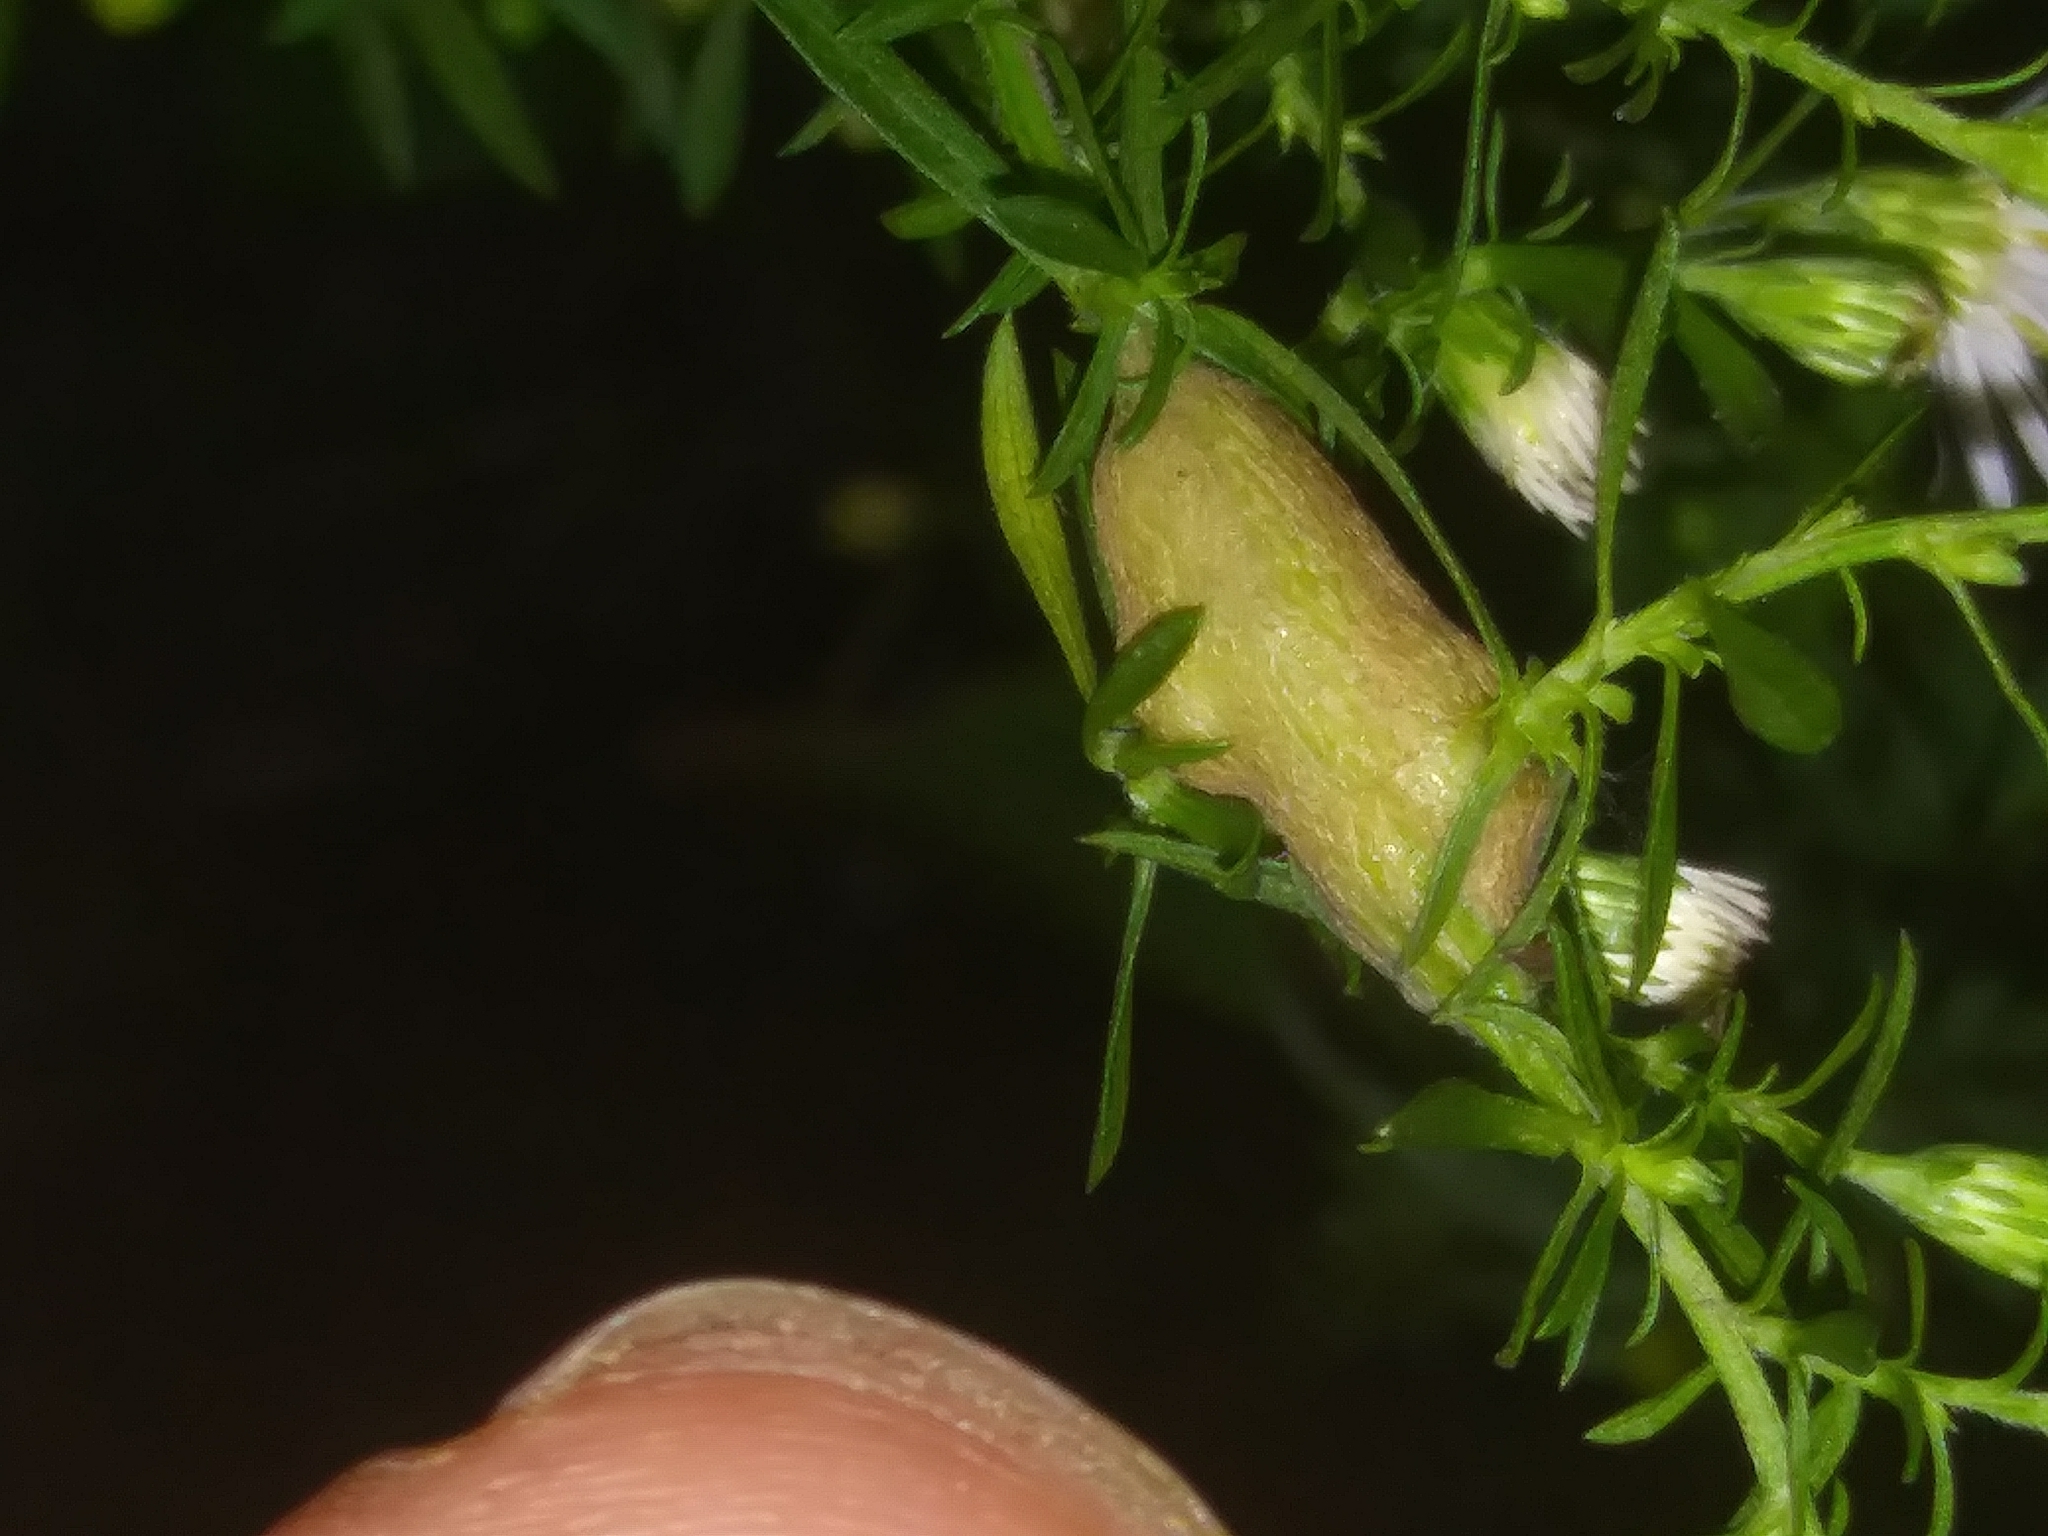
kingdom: Animalia
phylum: Arthropoda
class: Insecta
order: Diptera
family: Cecidomyiidae
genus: Neolasioptera
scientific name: Neolasioptera ramuscula
